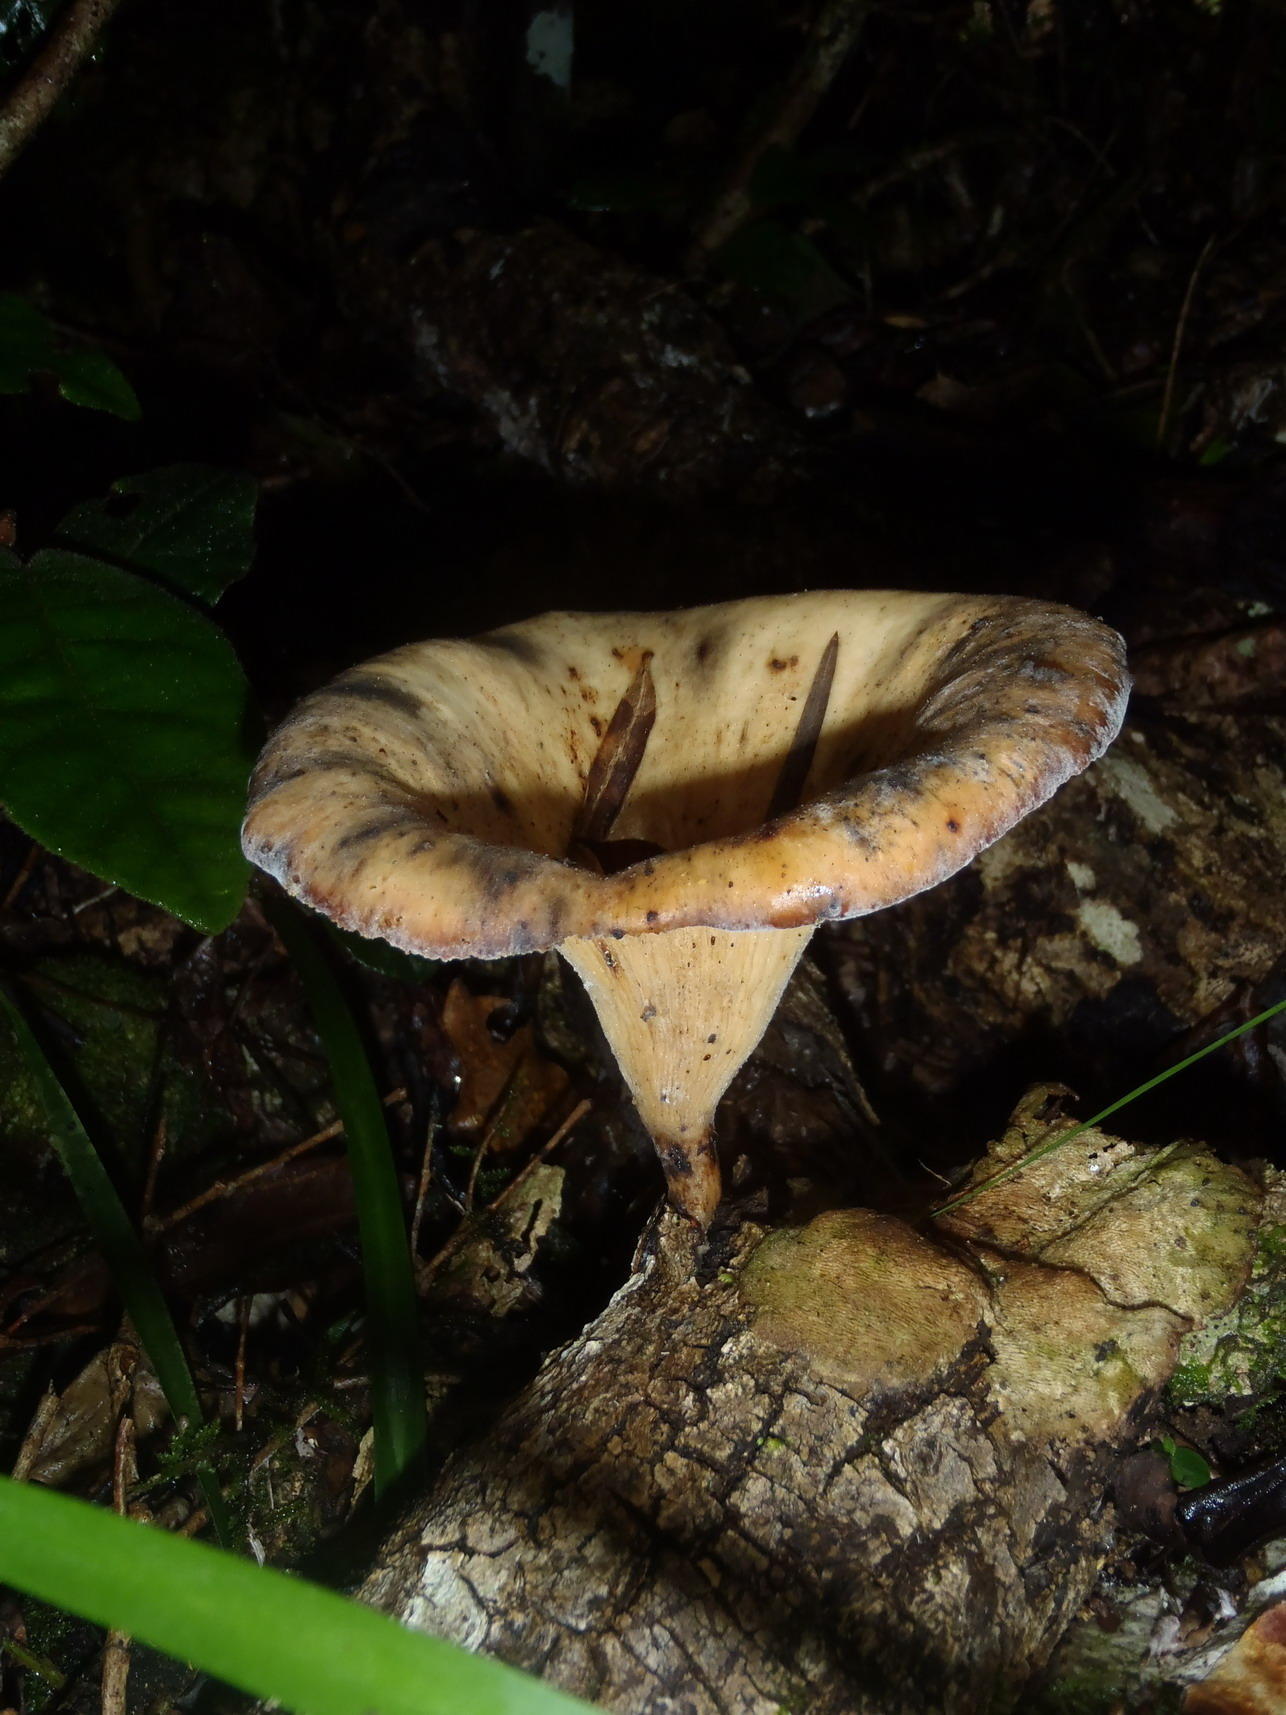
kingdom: Fungi
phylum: Basidiomycota
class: Agaricomycetes
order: Polyporales
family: Polyporaceae
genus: Lentinus
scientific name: Lentinus sajor-caju
